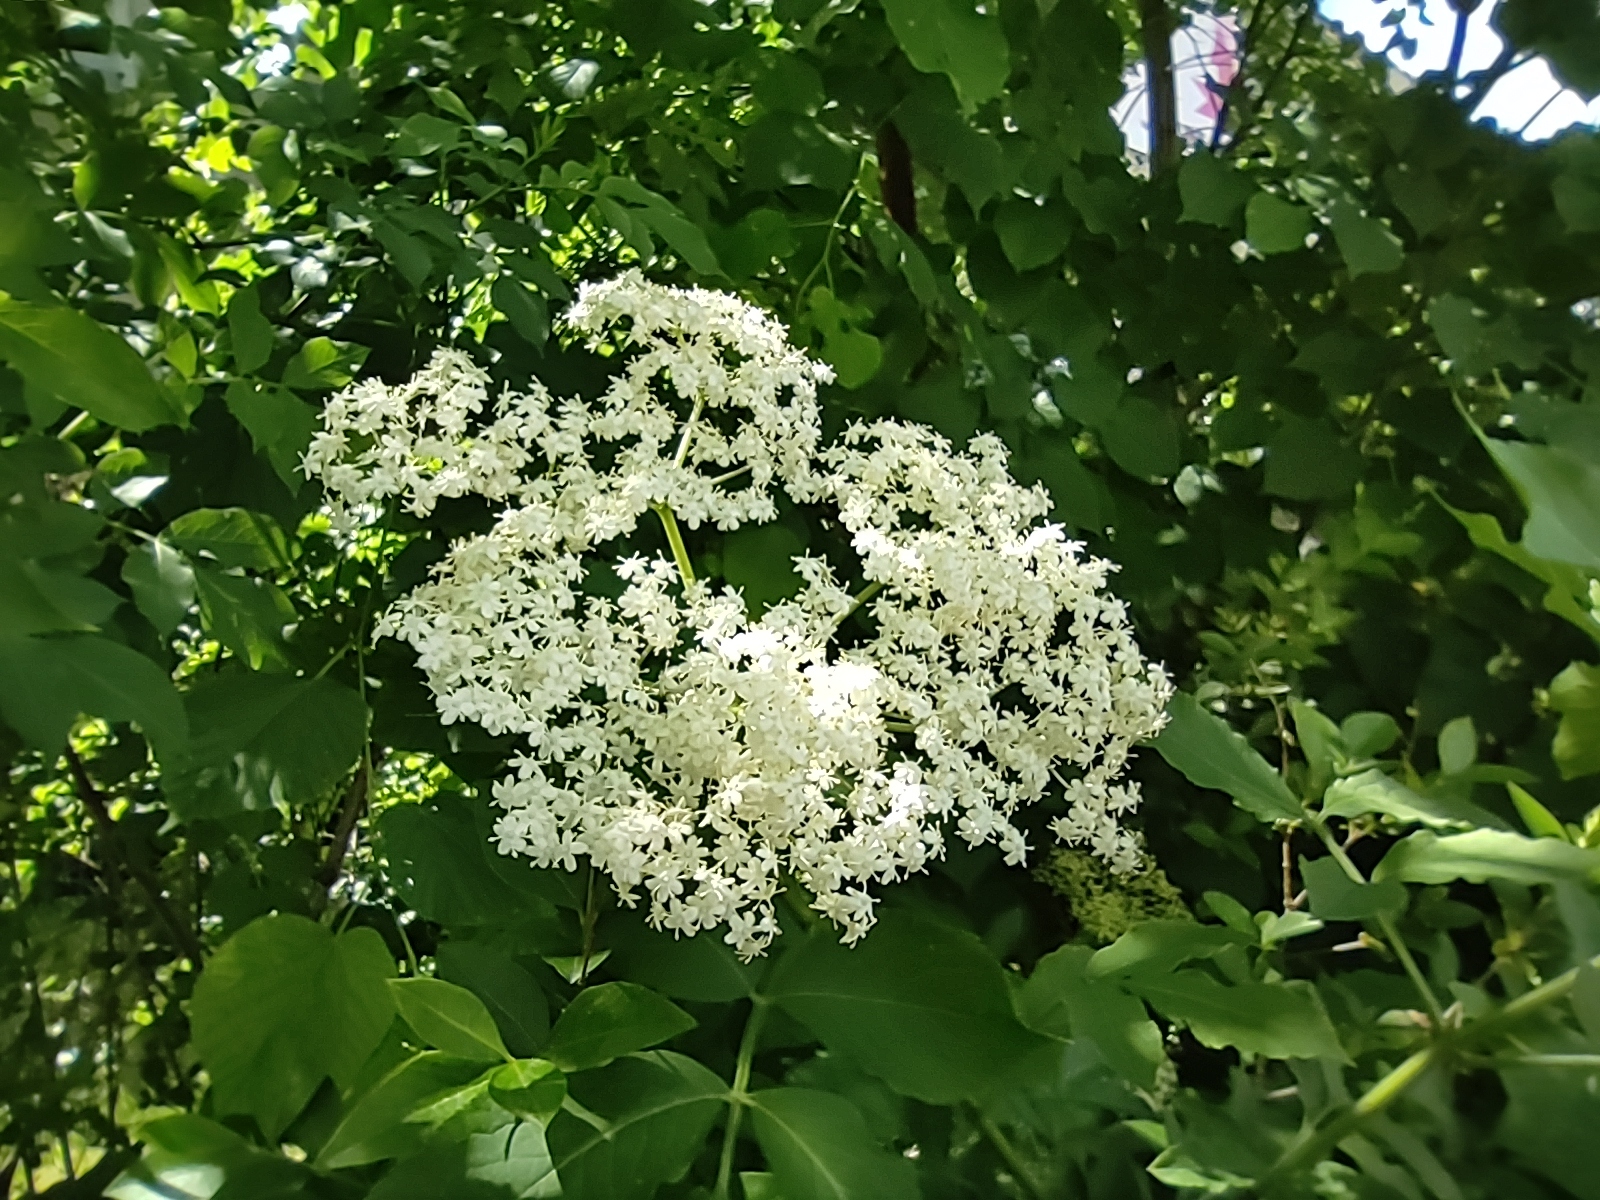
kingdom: Plantae
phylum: Tracheophyta
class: Magnoliopsida
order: Dipsacales
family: Viburnaceae
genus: Sambucus
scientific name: Sambucus nigra
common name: Elder
